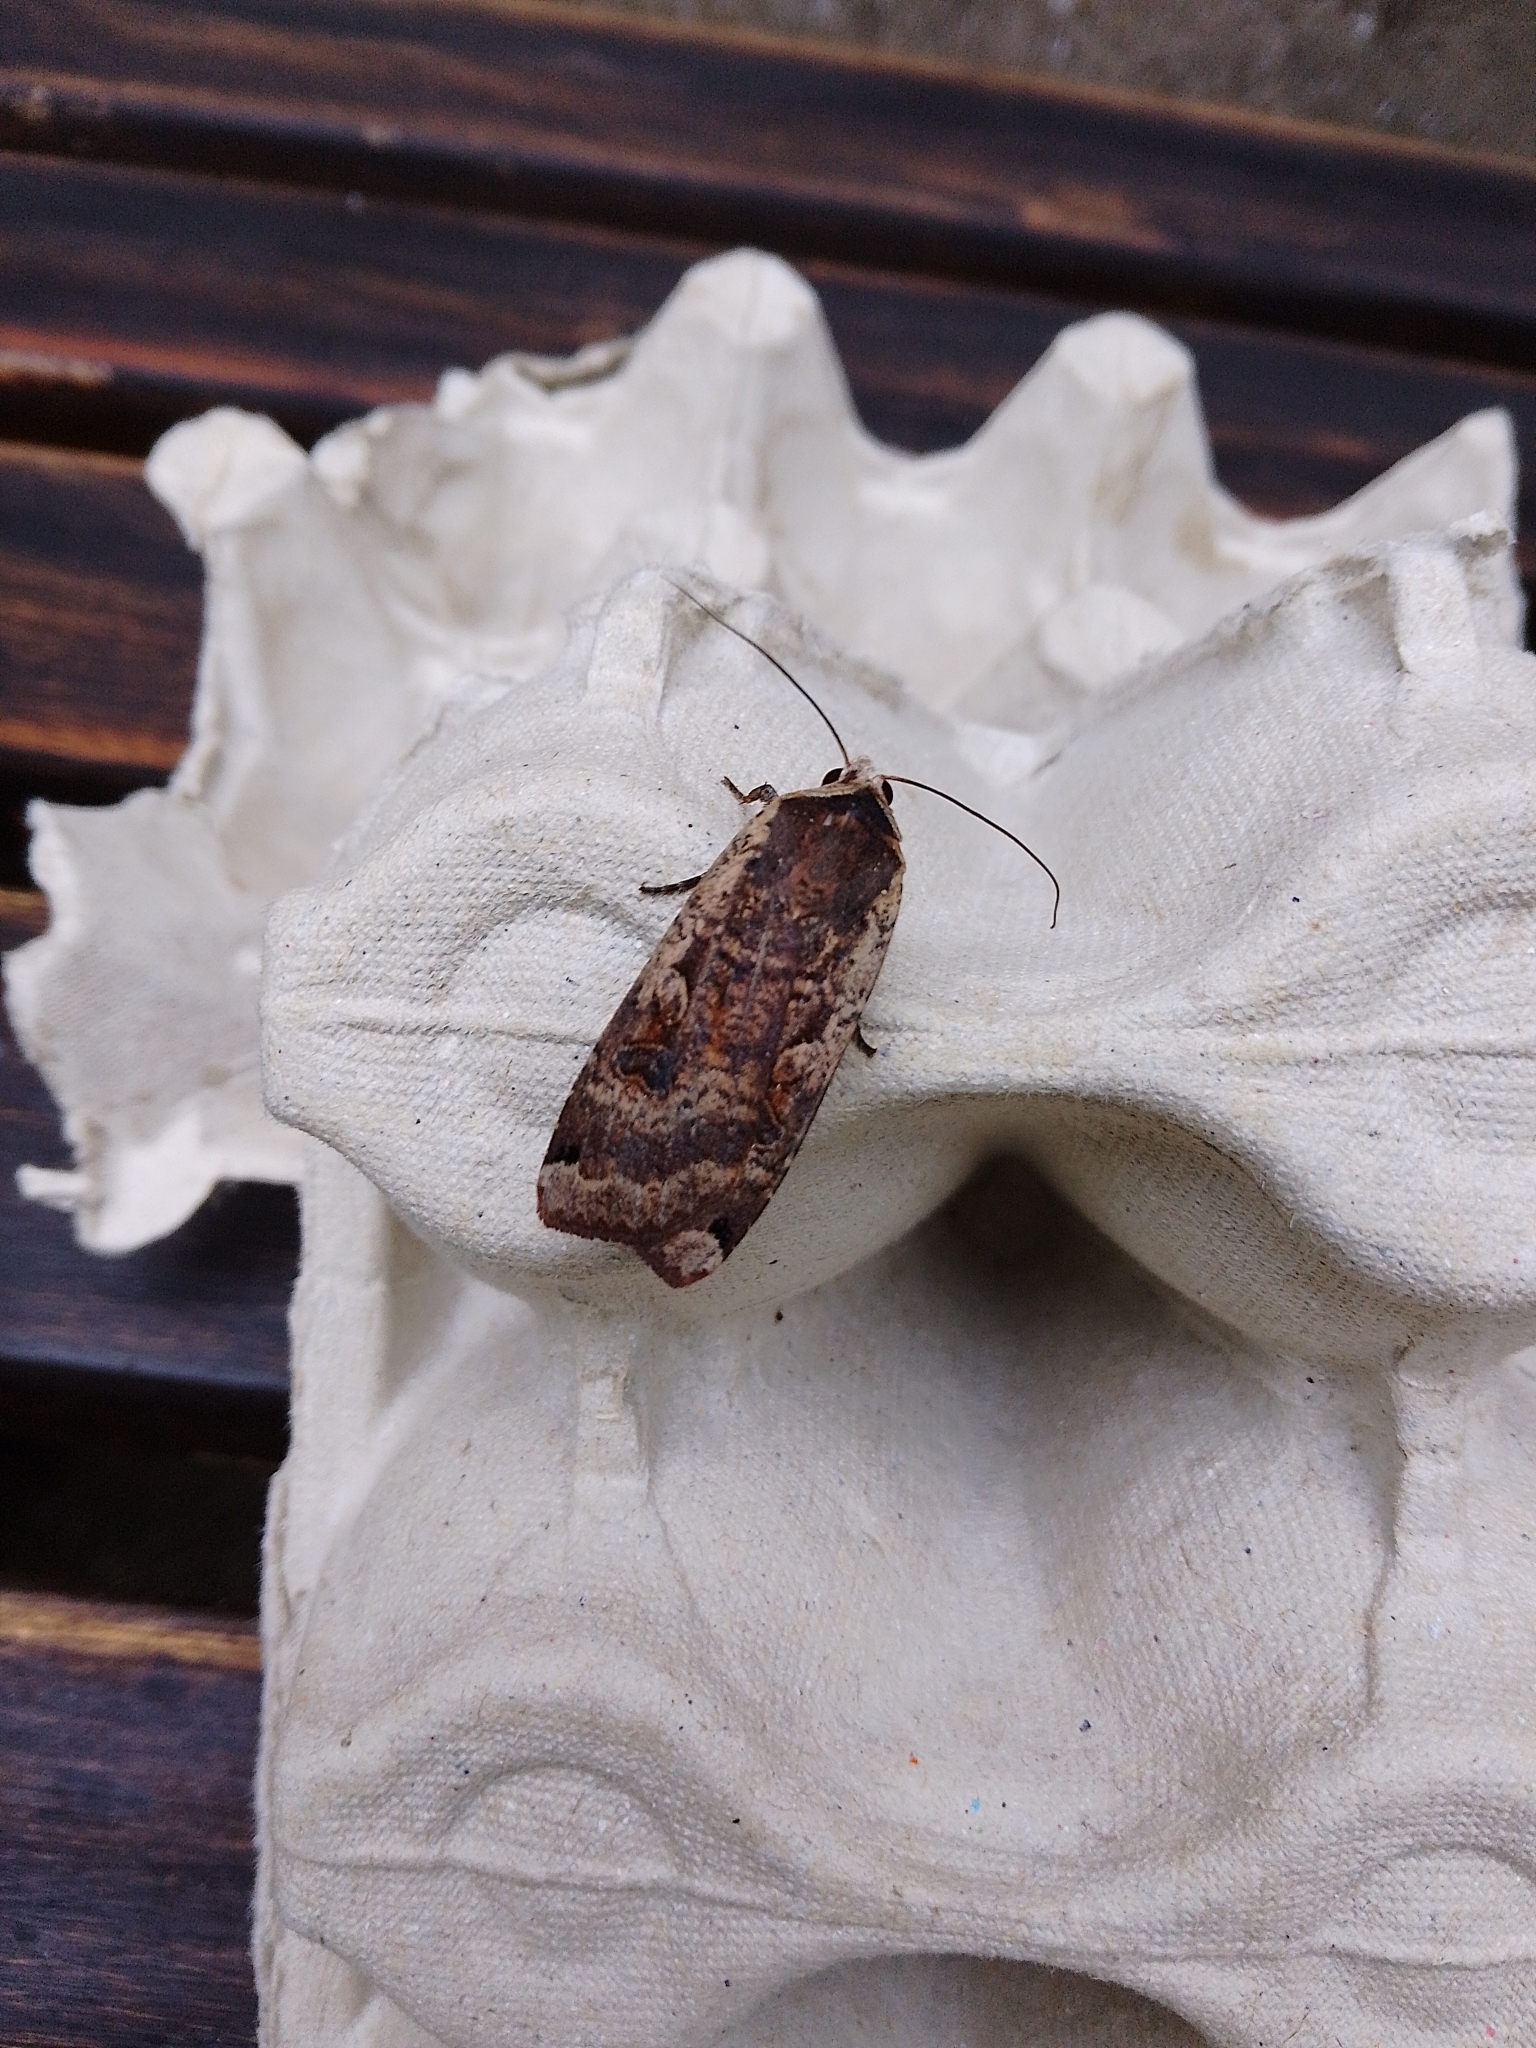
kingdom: Animalia
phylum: Arthropoda
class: Insecta
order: Lepidoptera
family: Noctuidae
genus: Noctua
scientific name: Noctua pronuba
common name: Large yellow underwing
